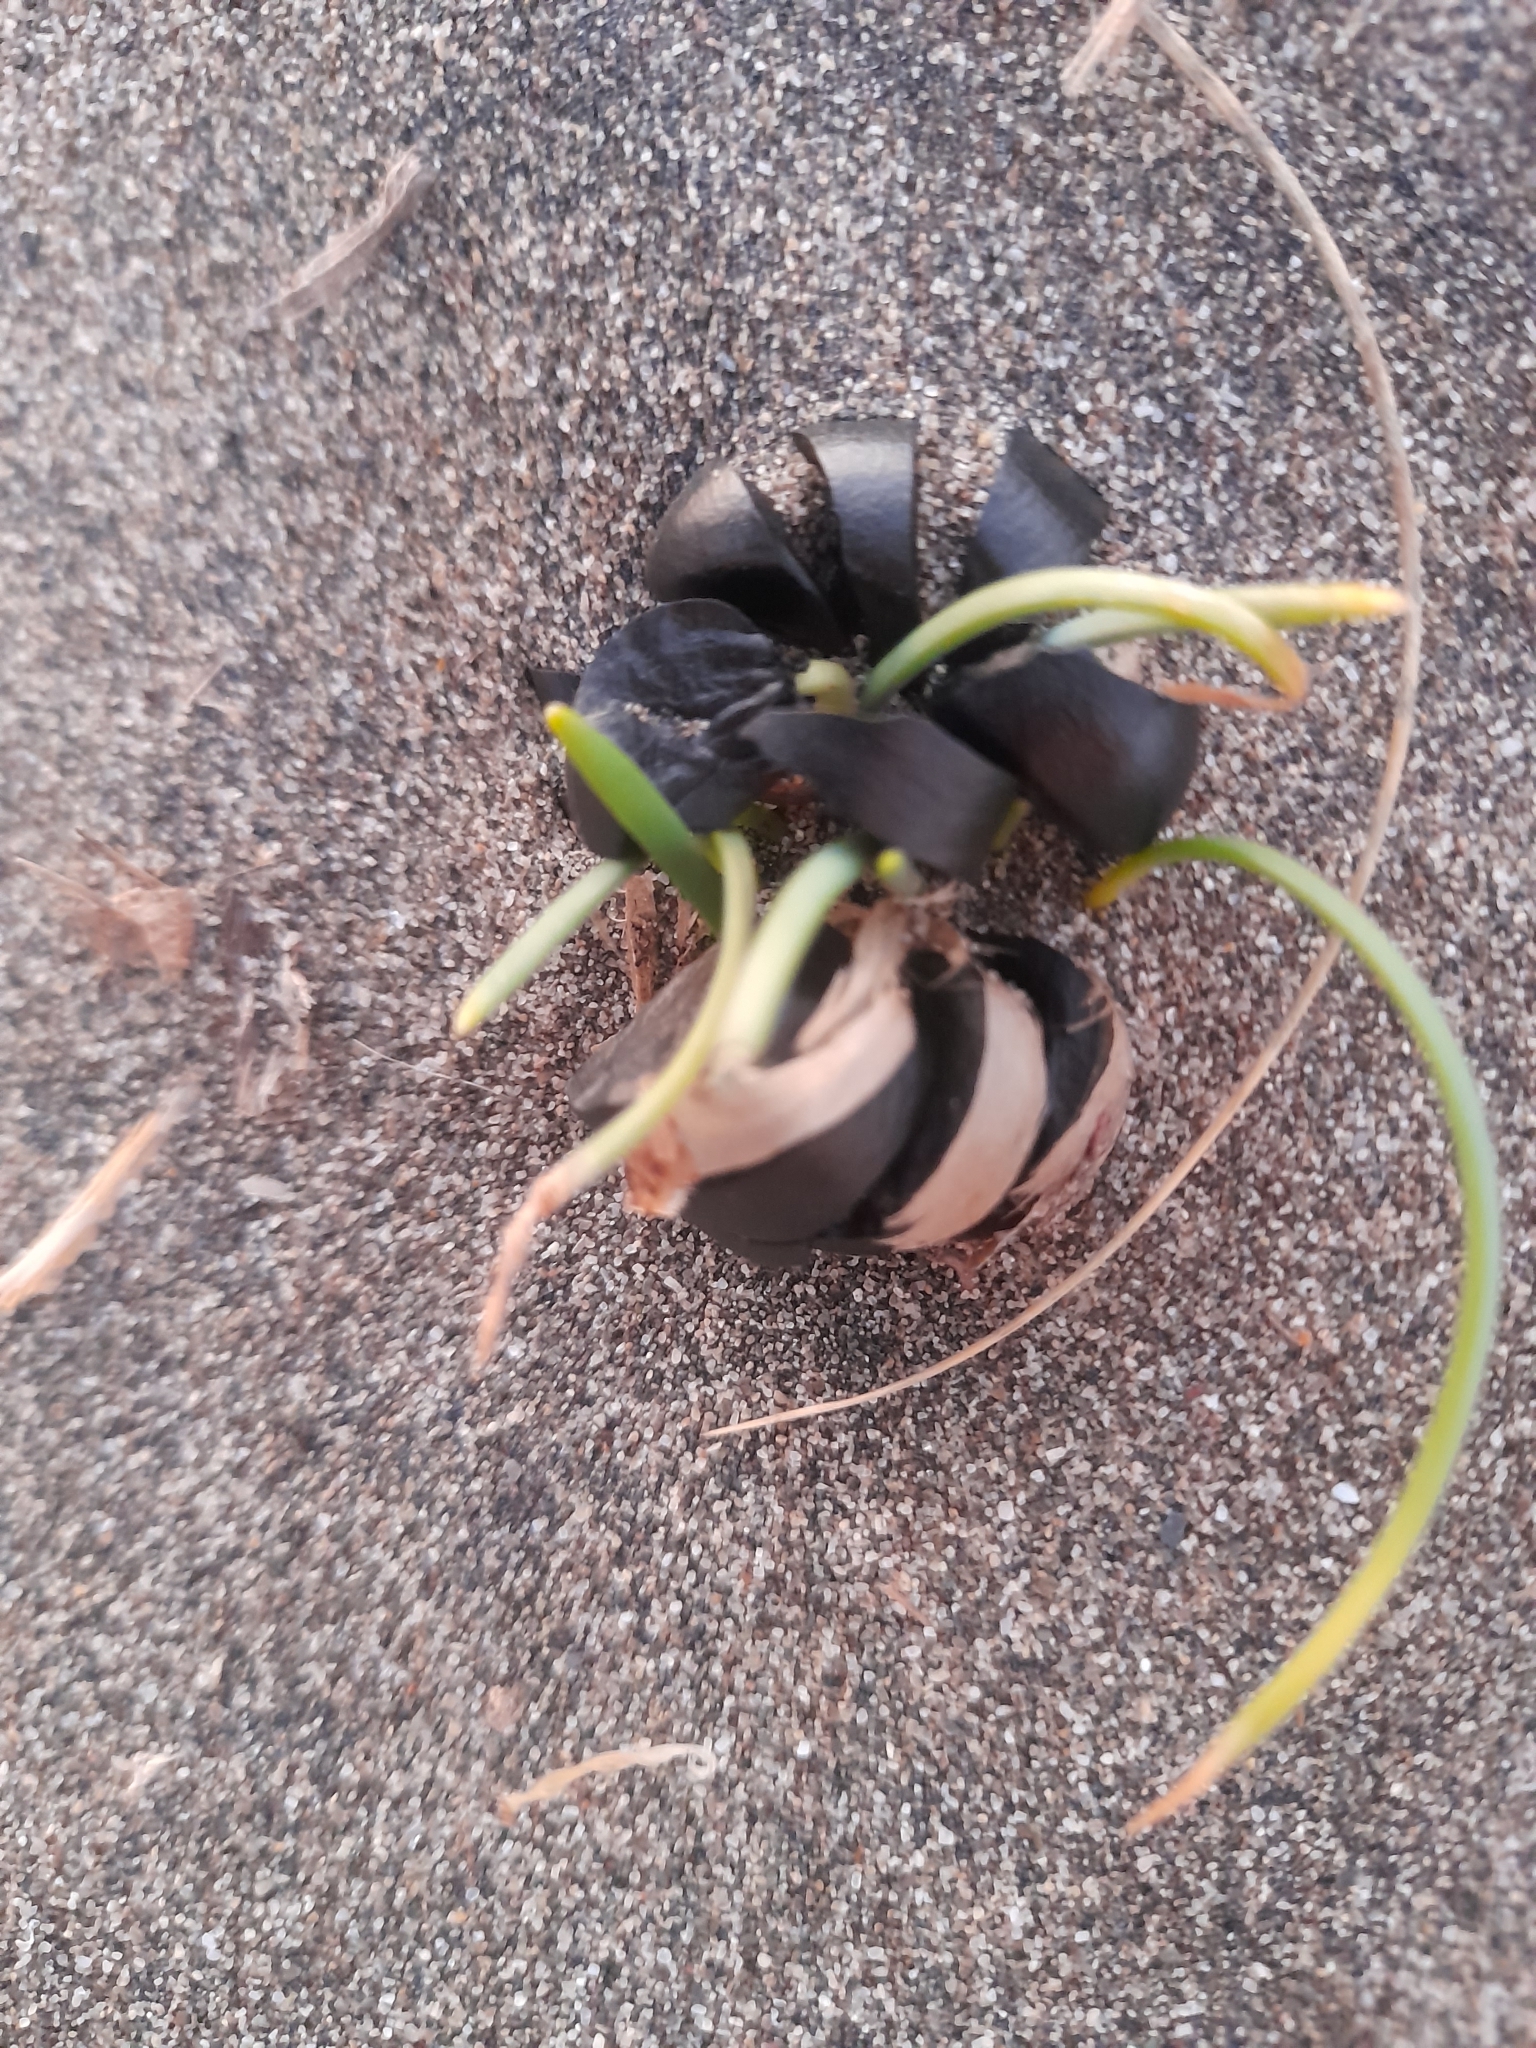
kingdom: Plantae
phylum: Tracheophyta
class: Liliopsida
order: Asparagales
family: Amaryllidaceae
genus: Pancratium
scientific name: Pancratium maritimum
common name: Sea-daffodil
